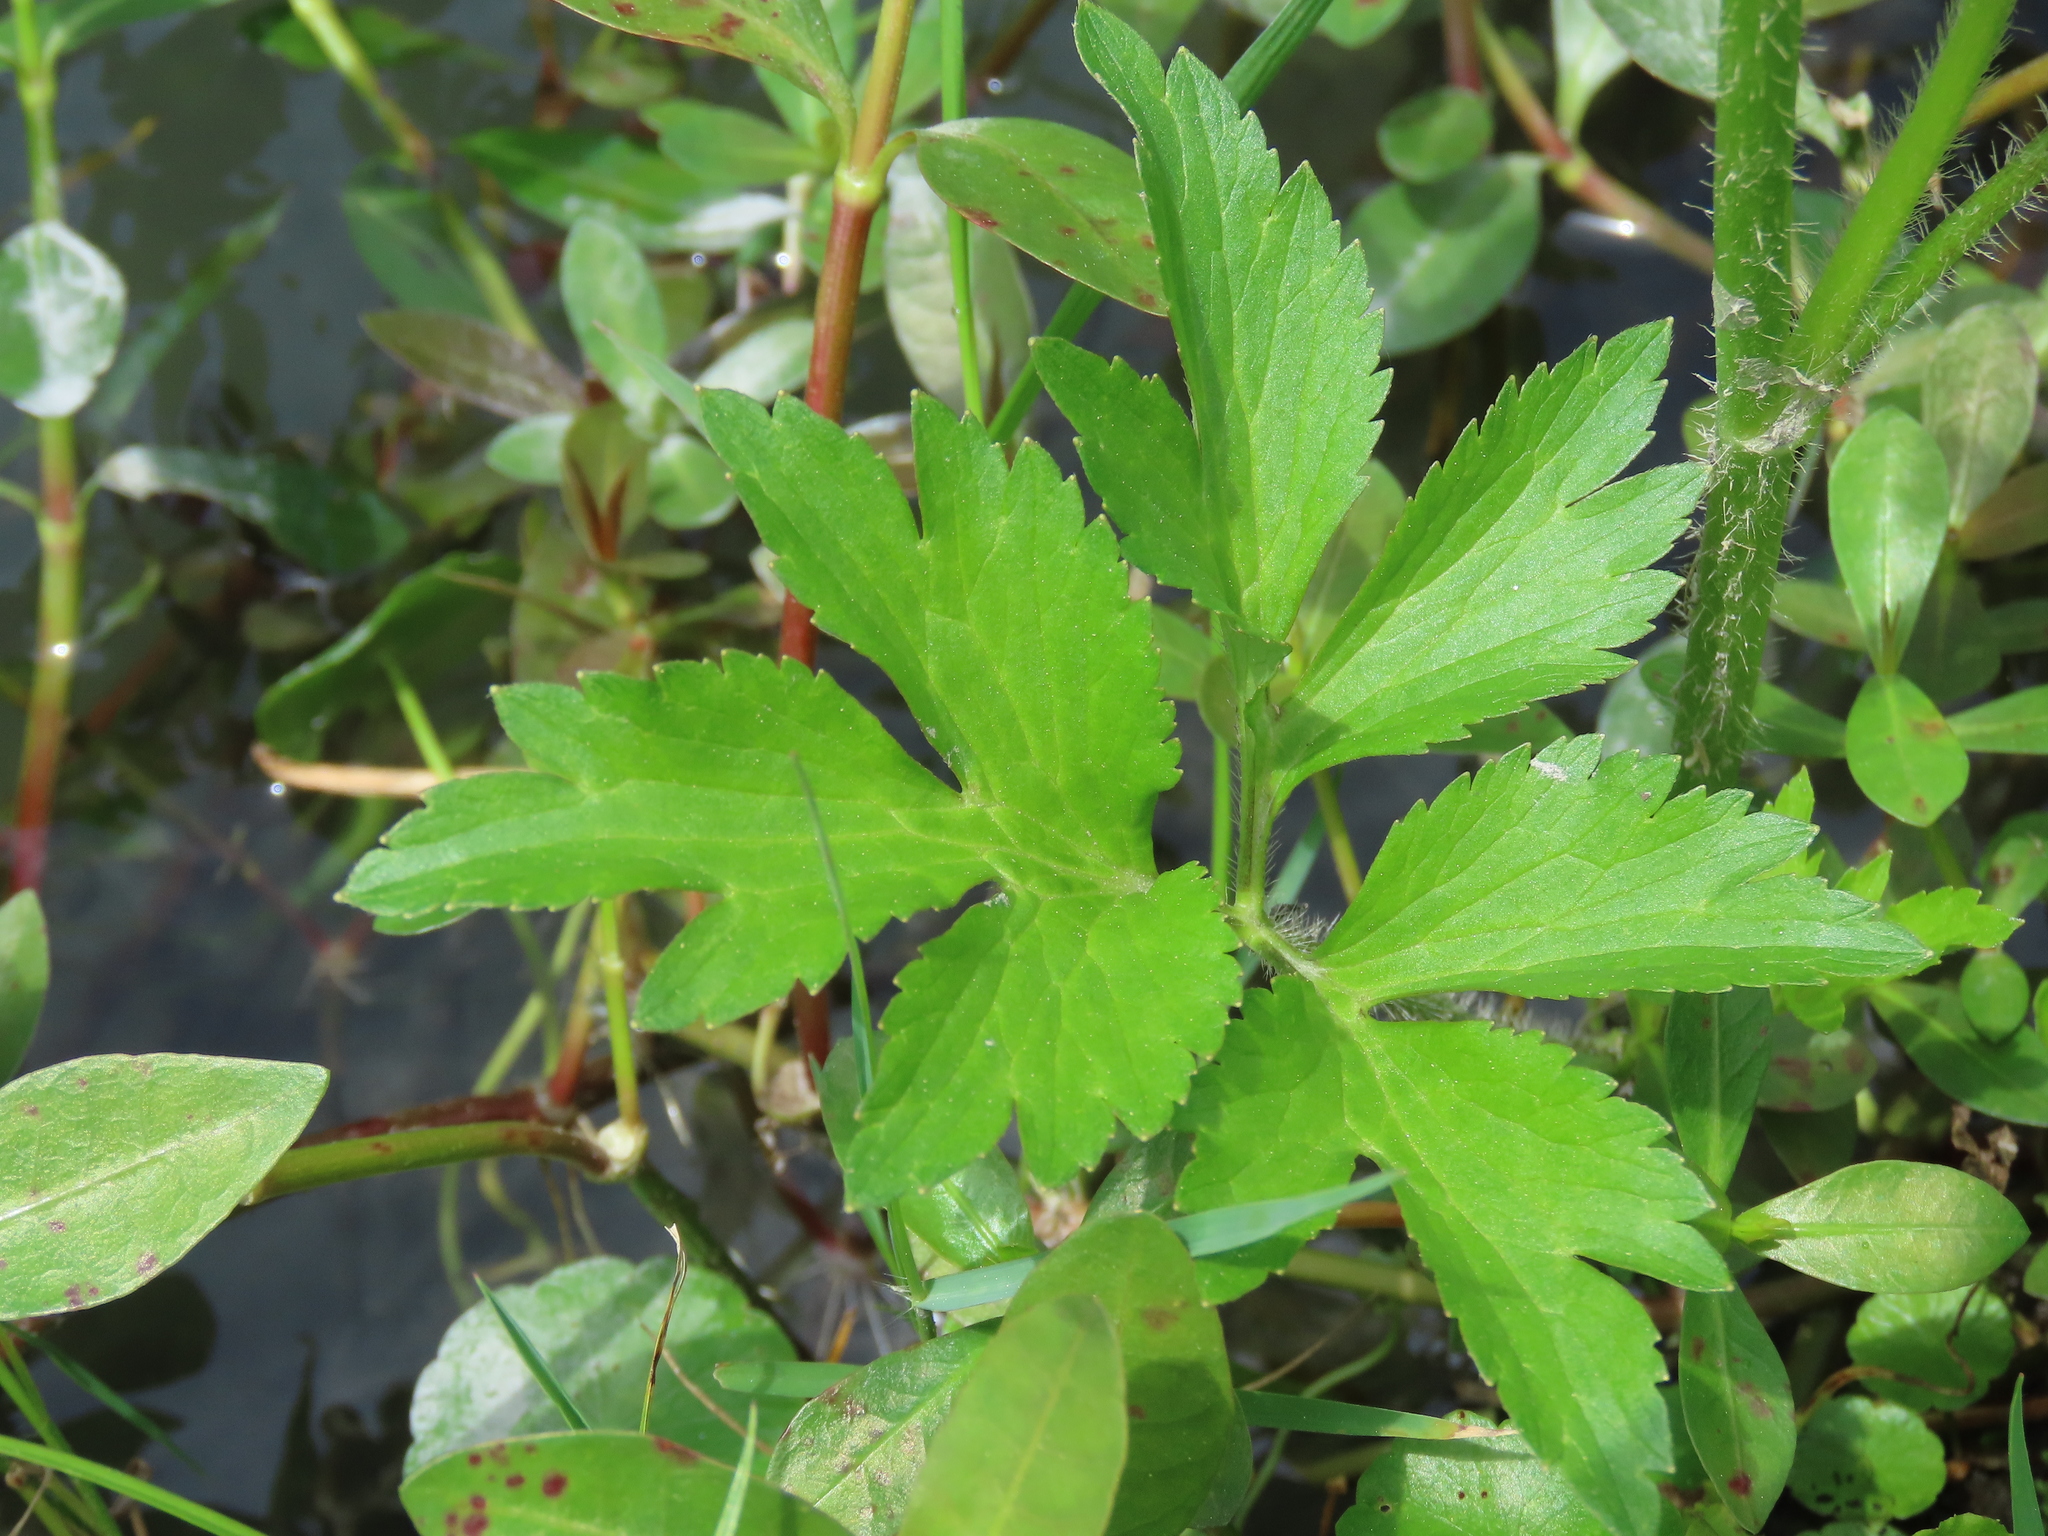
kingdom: Plantae
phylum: Tracheophyta
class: Magnoliopsida
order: Ranunculales
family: Ranunculaceae
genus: Ranunculus
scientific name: Ranunculus cantoniensis
